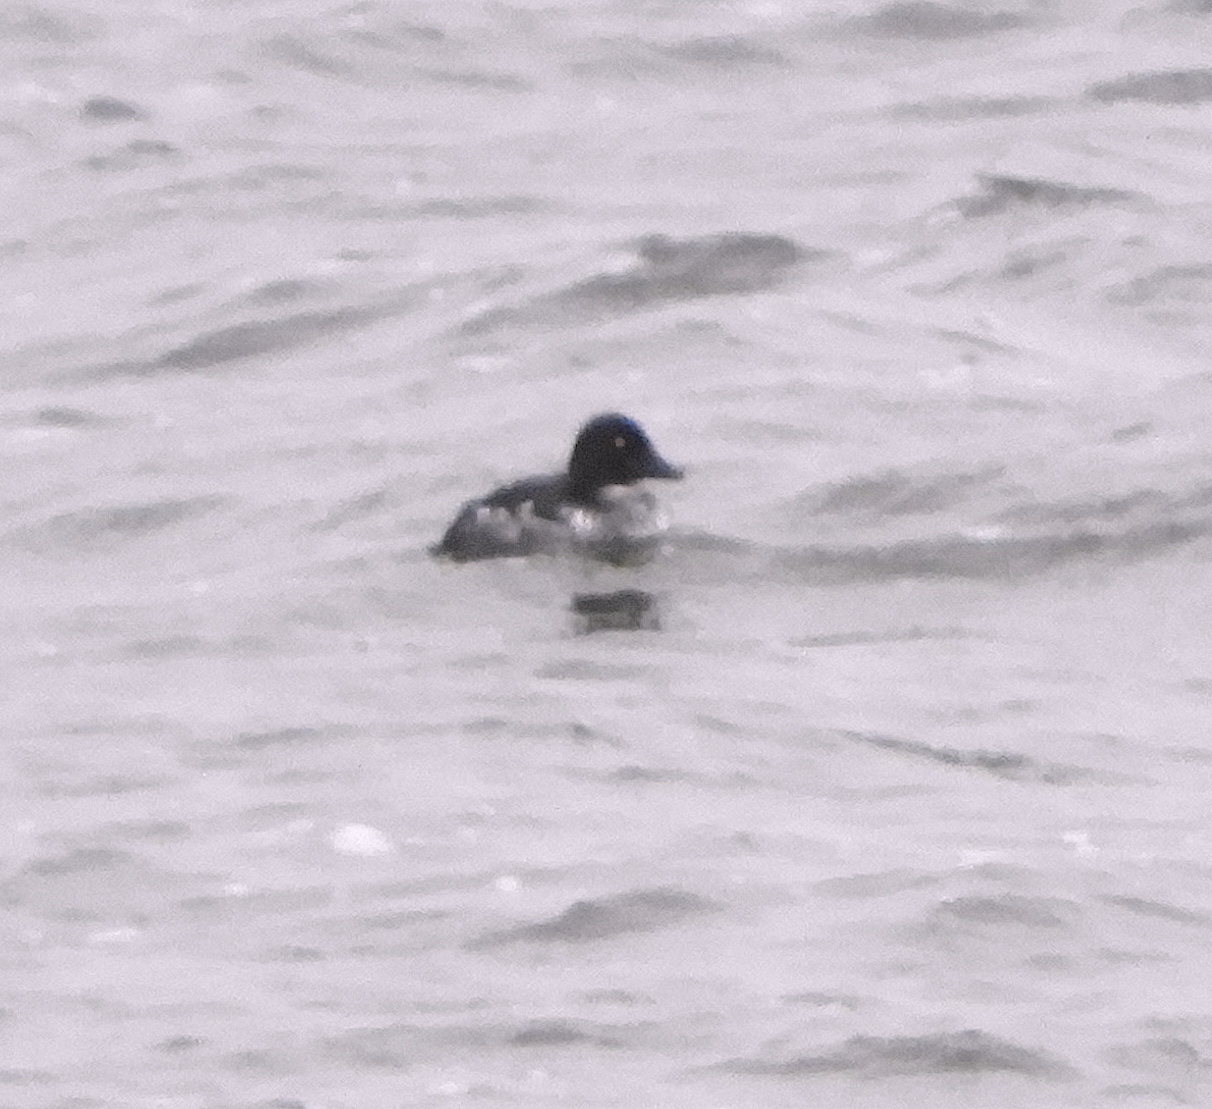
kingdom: Animalia
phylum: Chordata
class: Aves
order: Anseriformes
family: Anatidae
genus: Bucephala
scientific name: Bucephala clangula
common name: Common goldeneye
